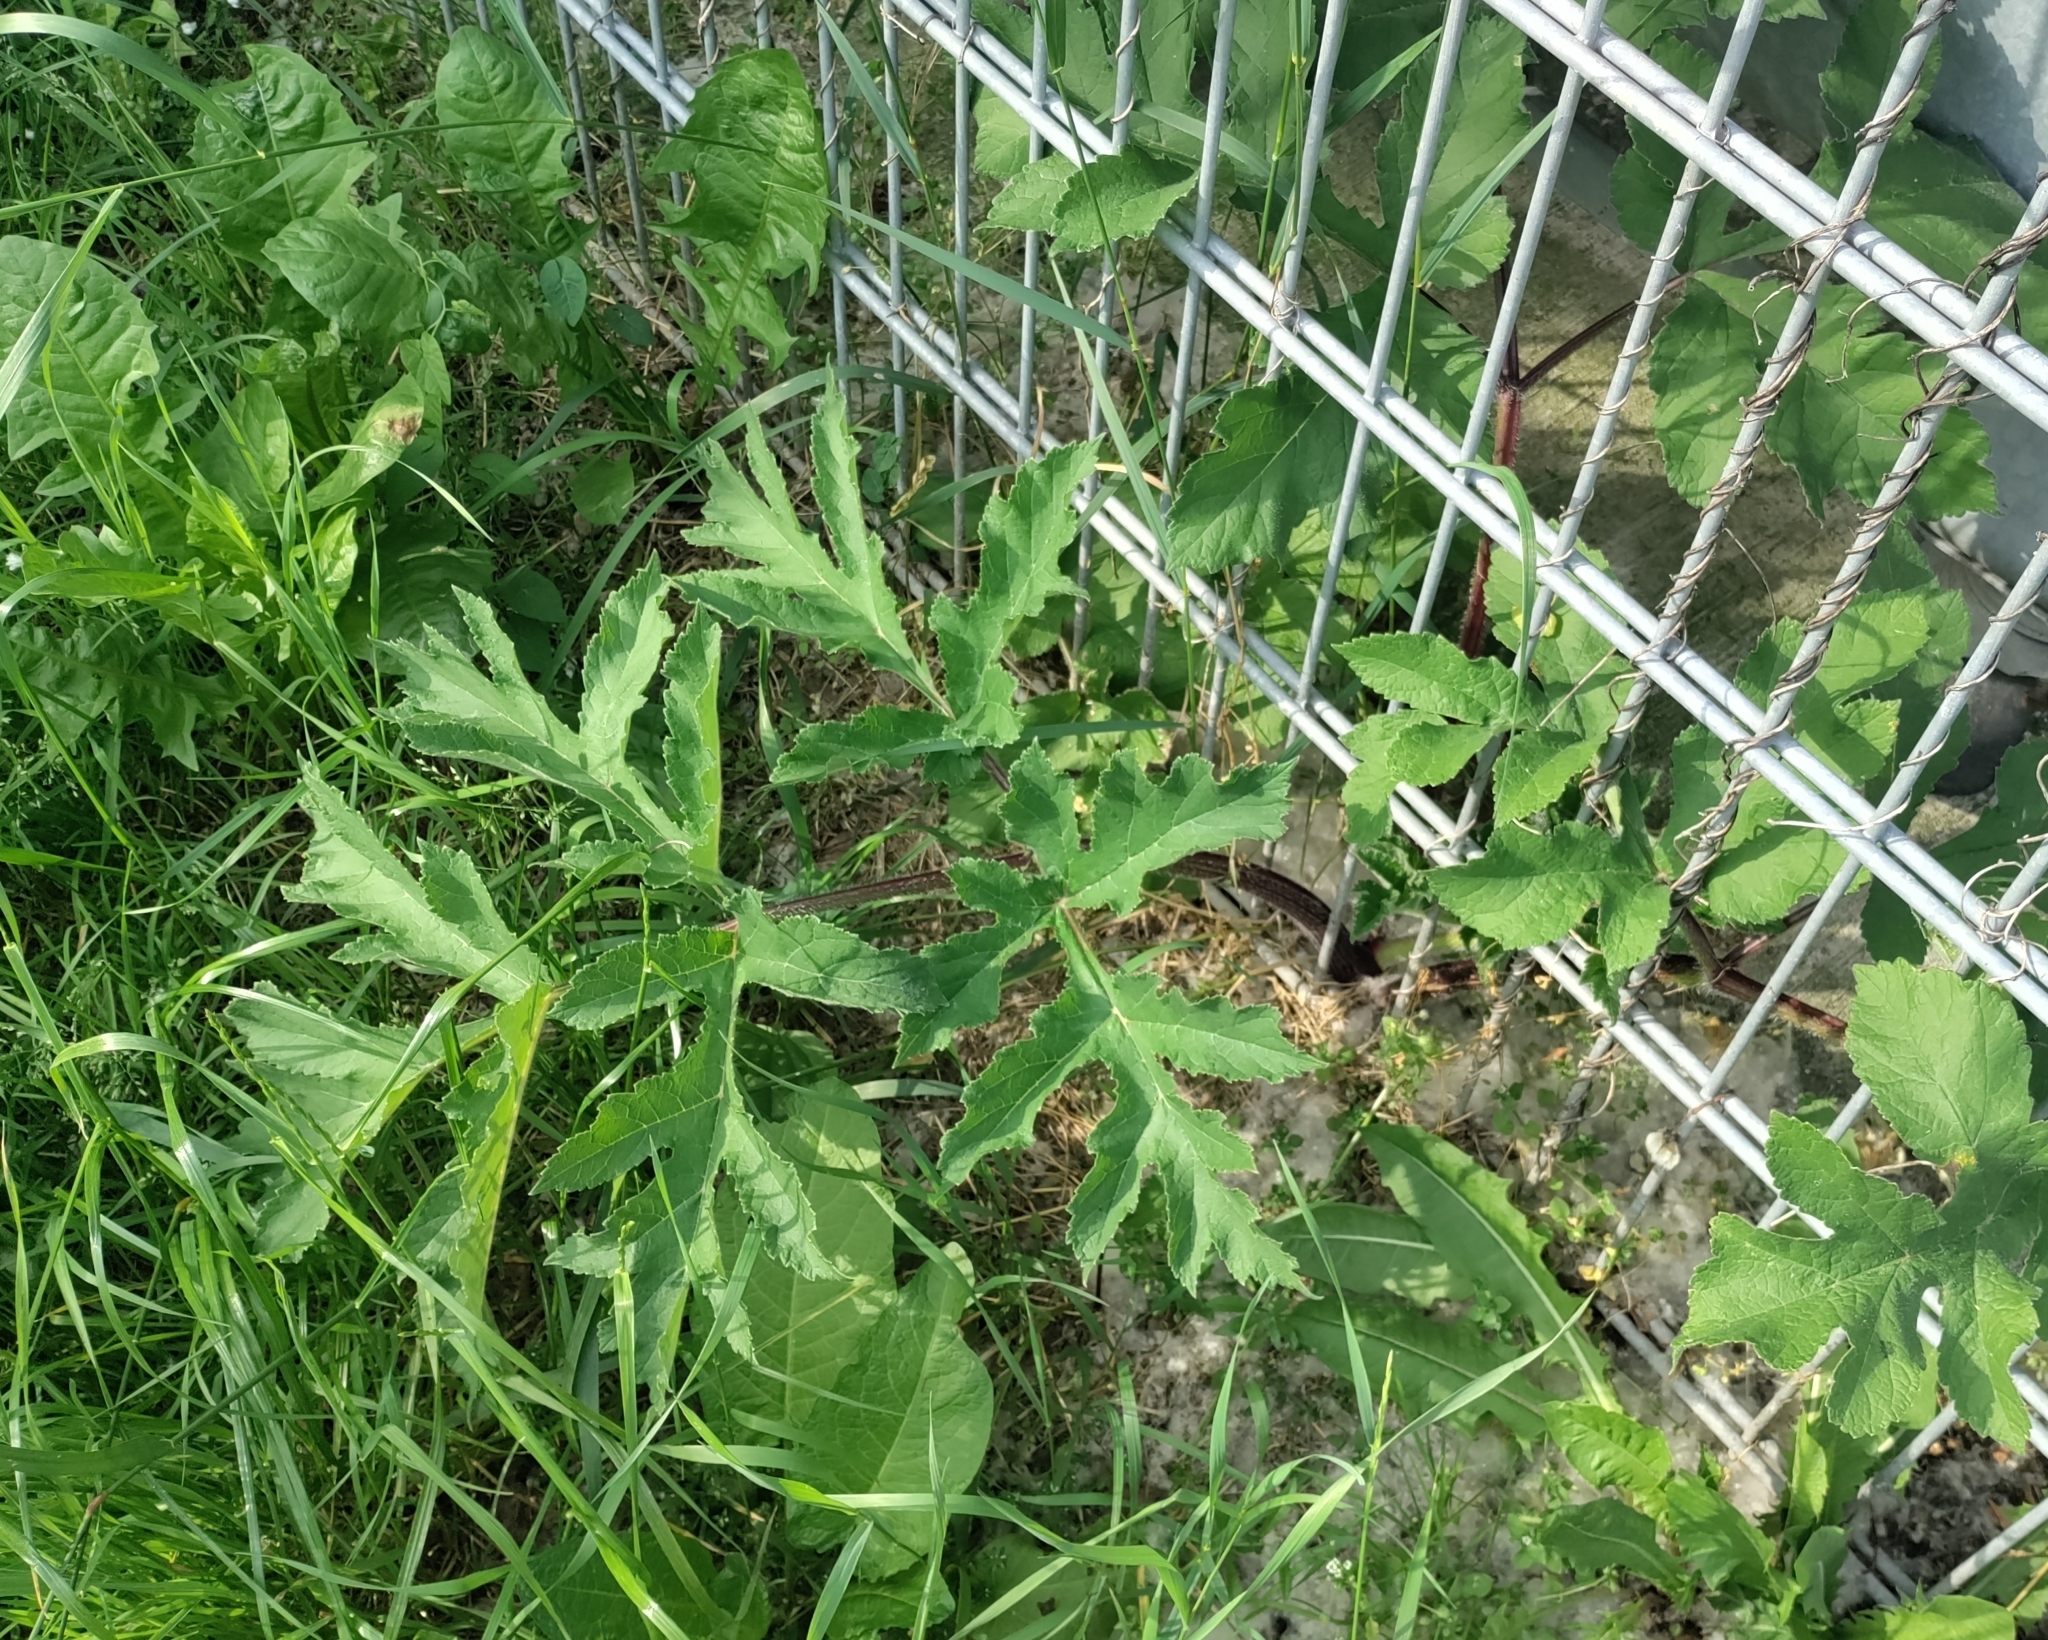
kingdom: Plantae
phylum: Tracheophyta
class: Magnoliopsida
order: Apiales
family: Apiaceae
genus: Heracleum
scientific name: Heracleum sphondylium
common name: Hogweed
